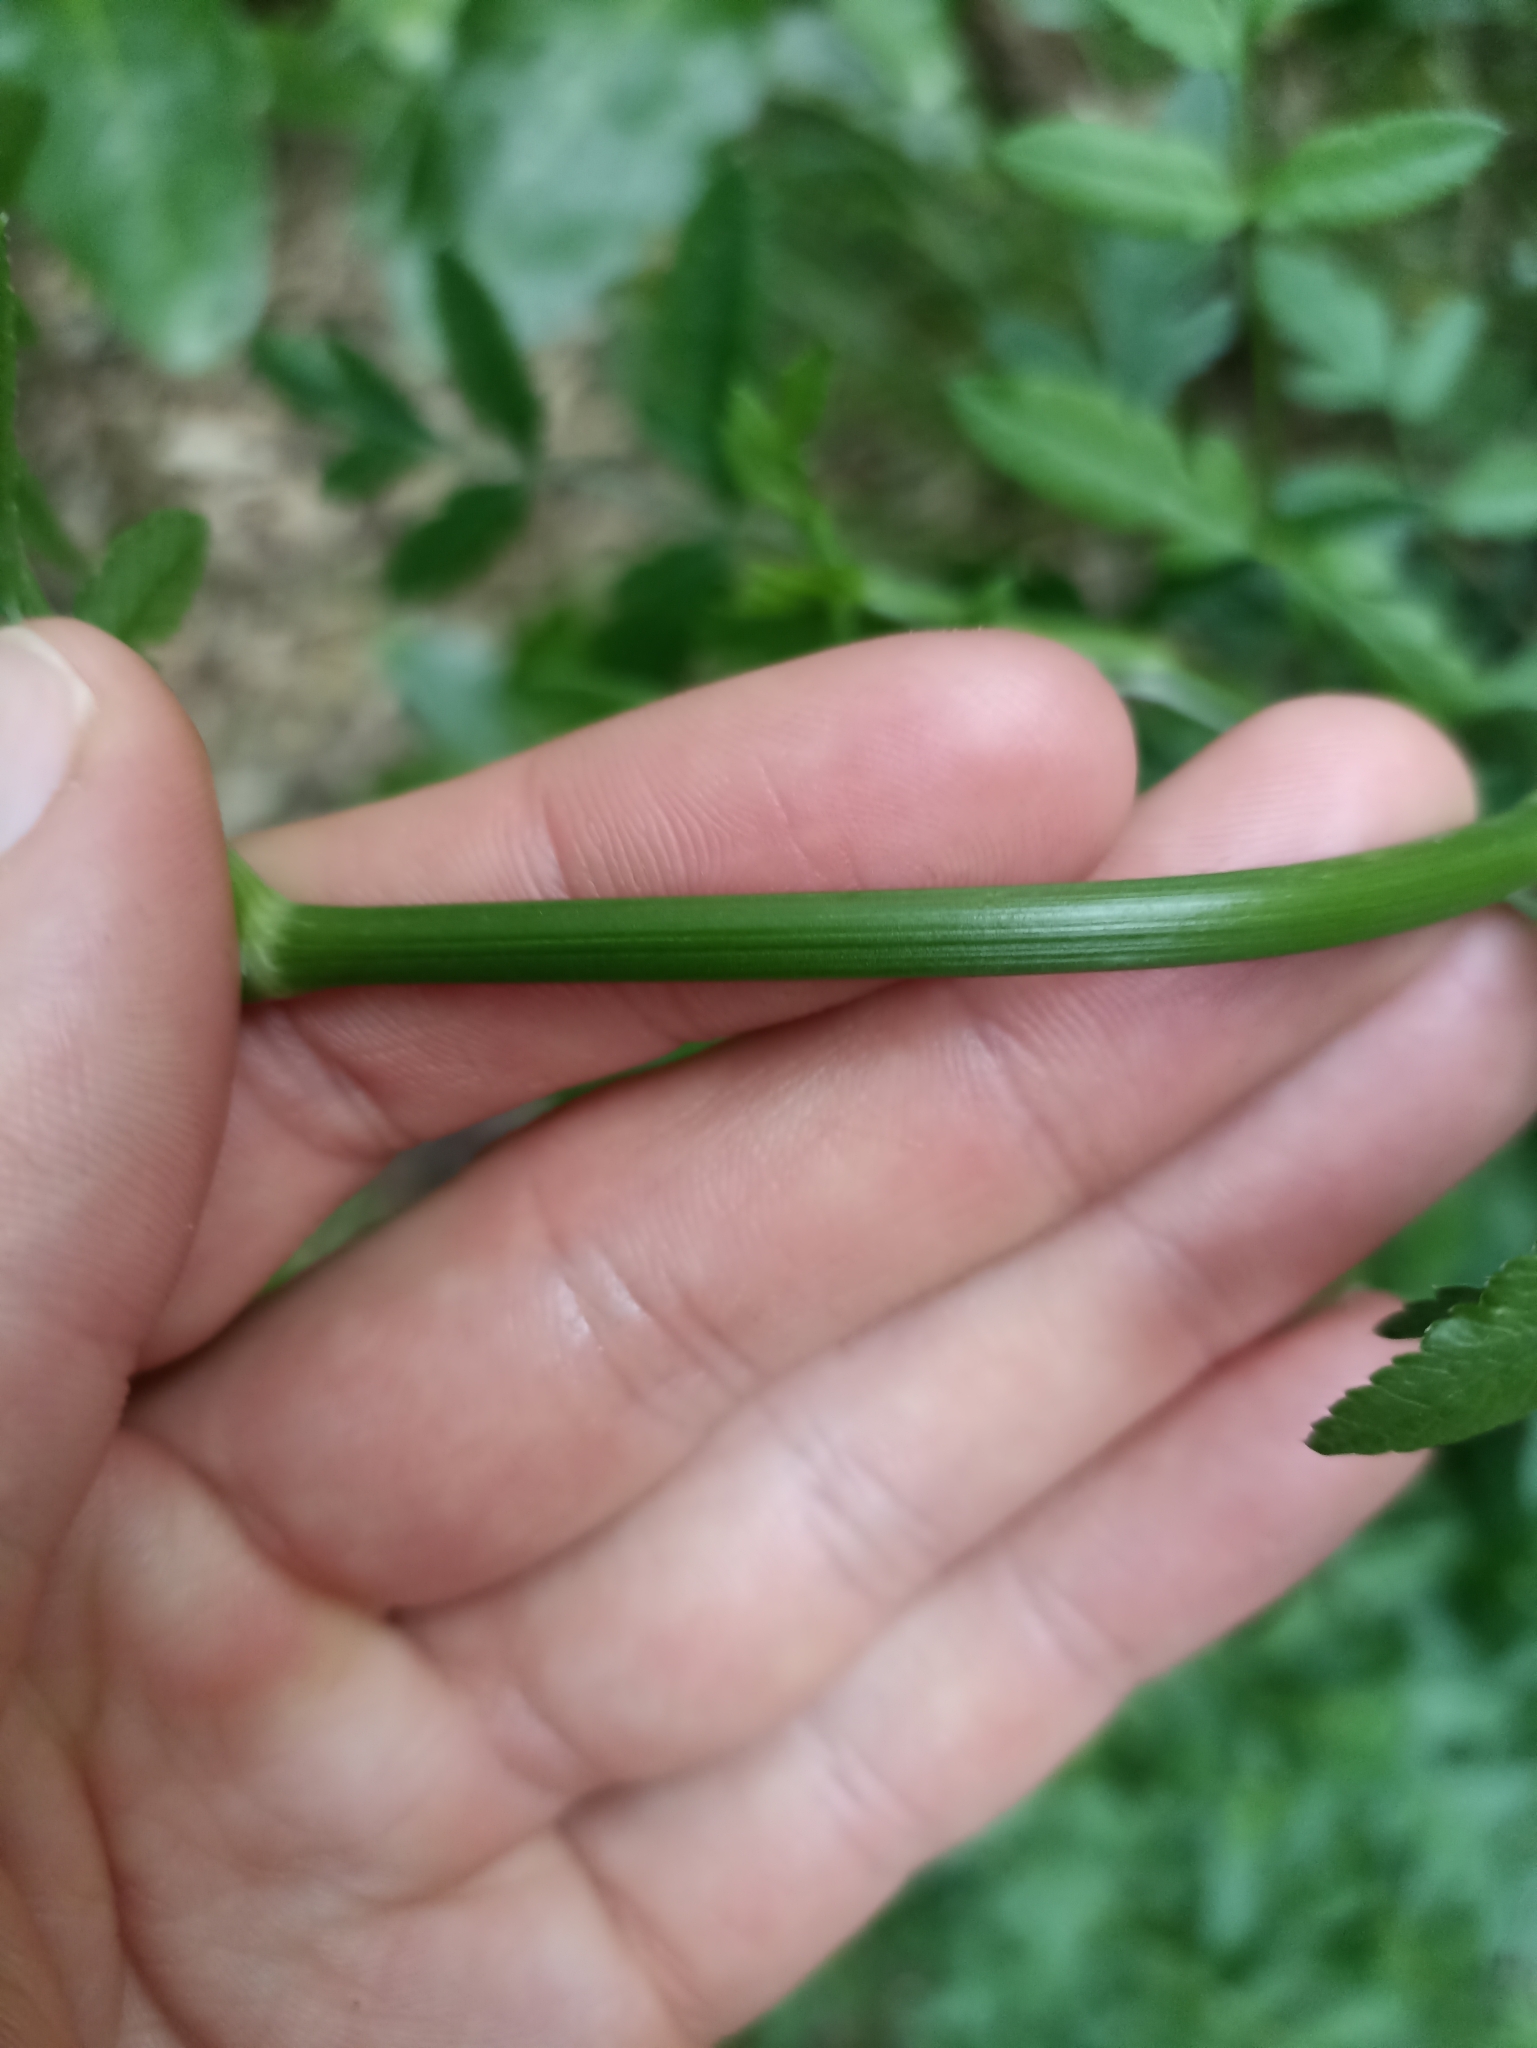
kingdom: Plantae
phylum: Tracheophyta
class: Magnoliopsida
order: Apiales
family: Apiaceae
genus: Sison
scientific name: Sison amomum
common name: Stone-parsley
